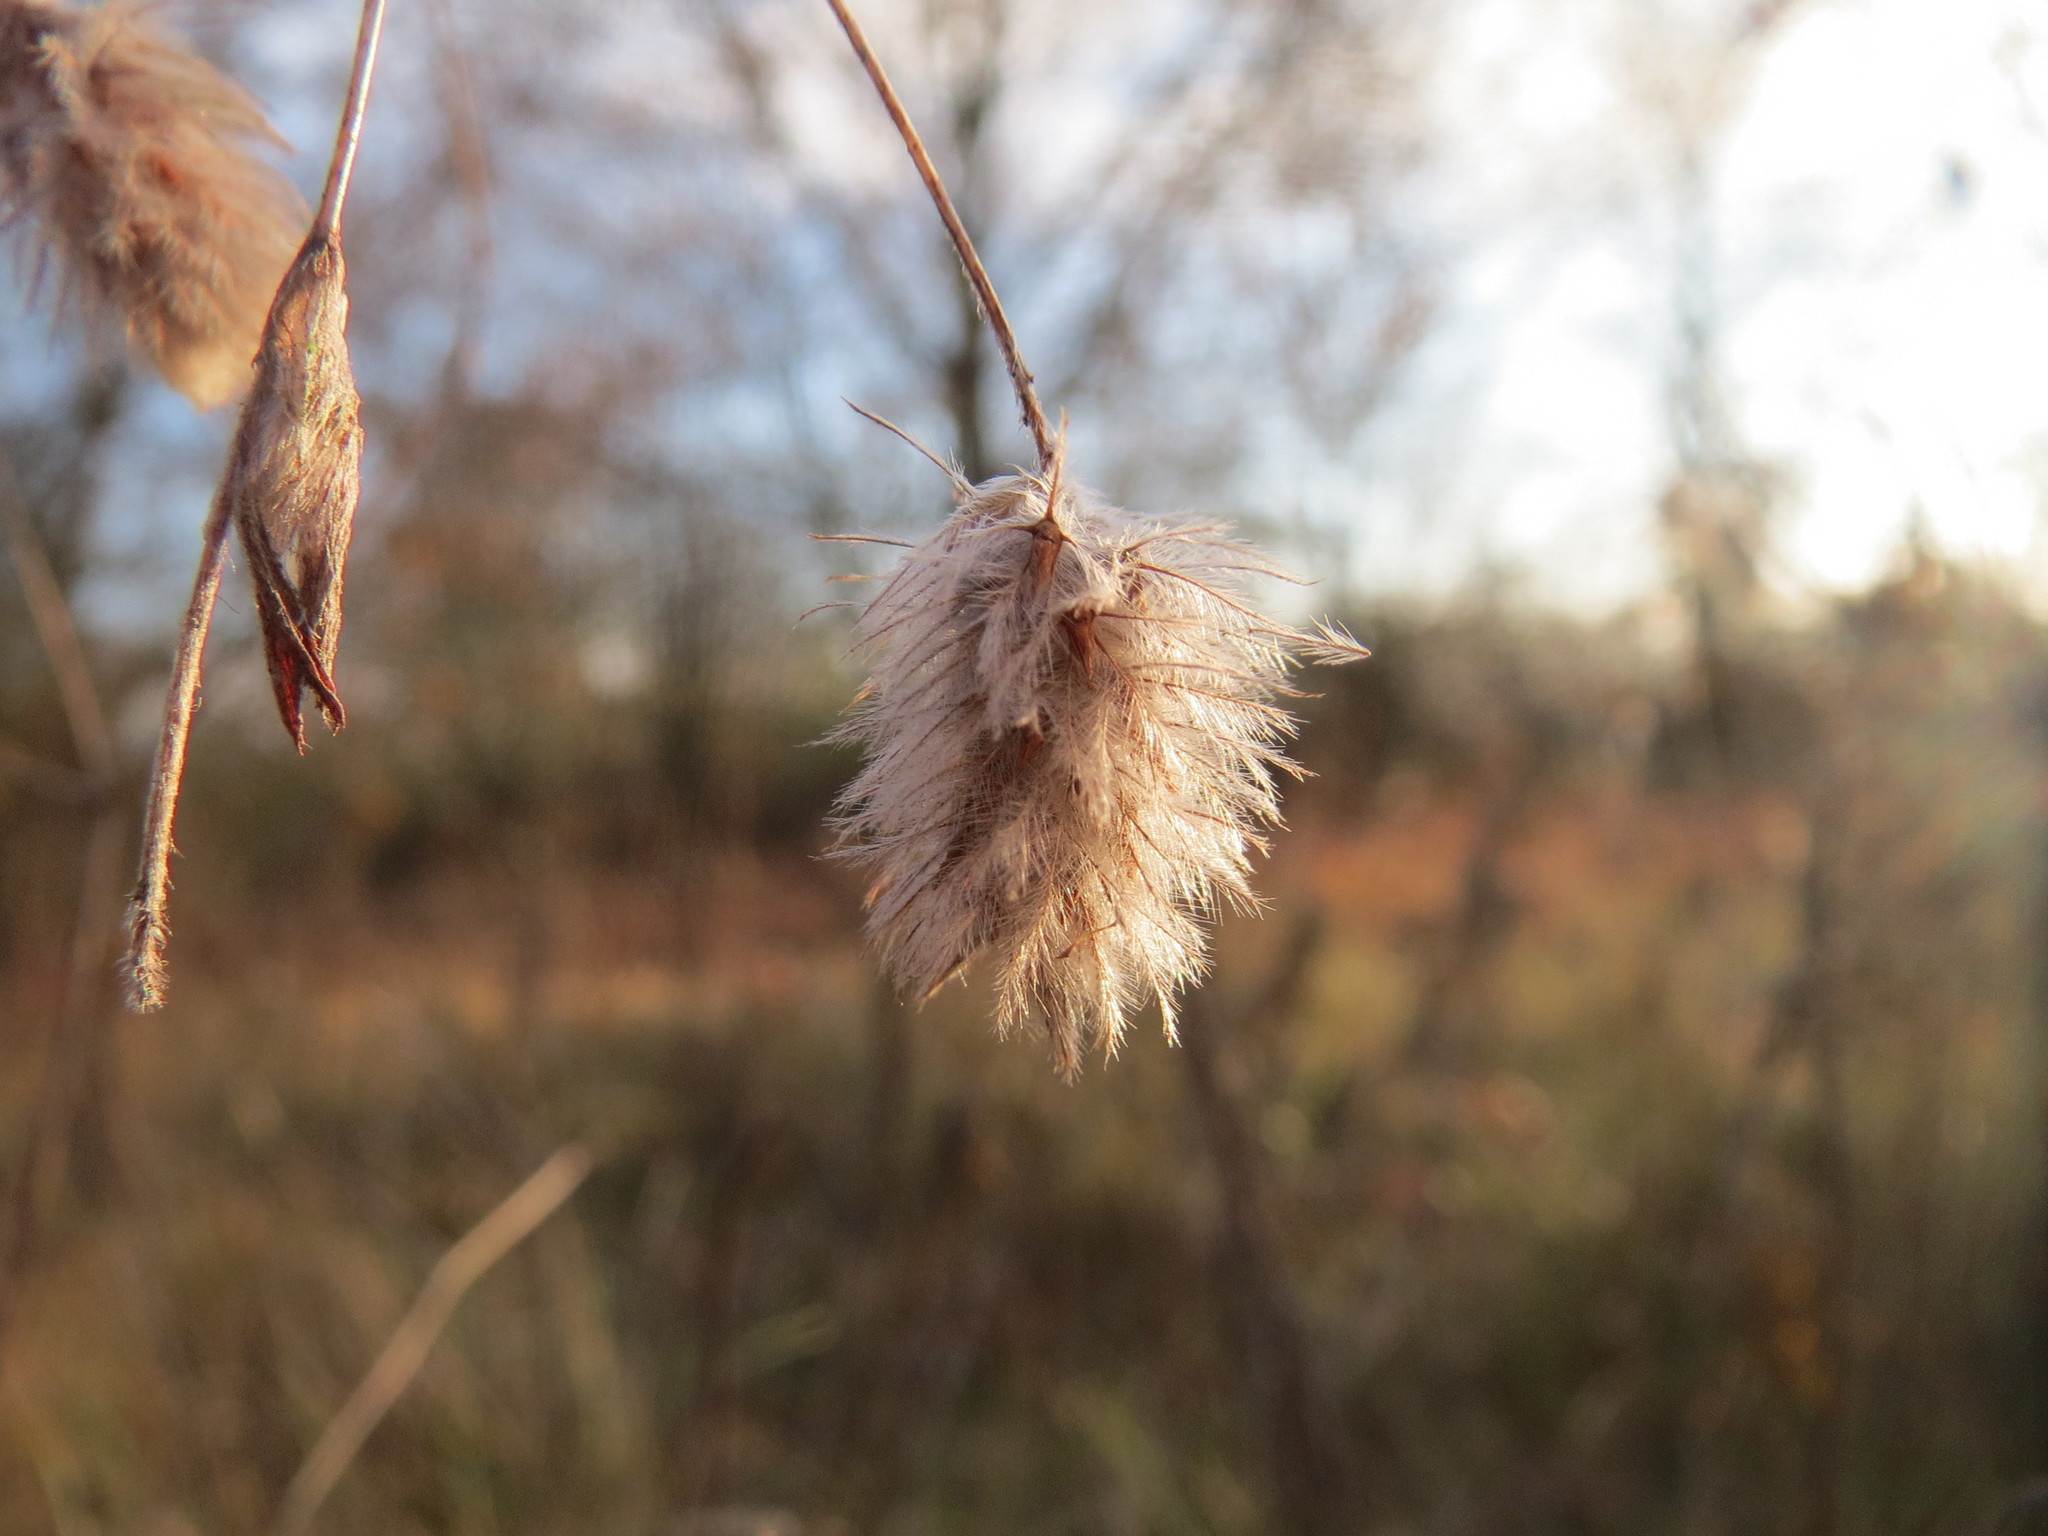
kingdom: Plantae
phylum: Tracheophyta
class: Magnoliopsida
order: Fabales
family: Fabaceae
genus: Trifolium
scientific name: Trifolium arvense
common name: Hare's-foot clover
